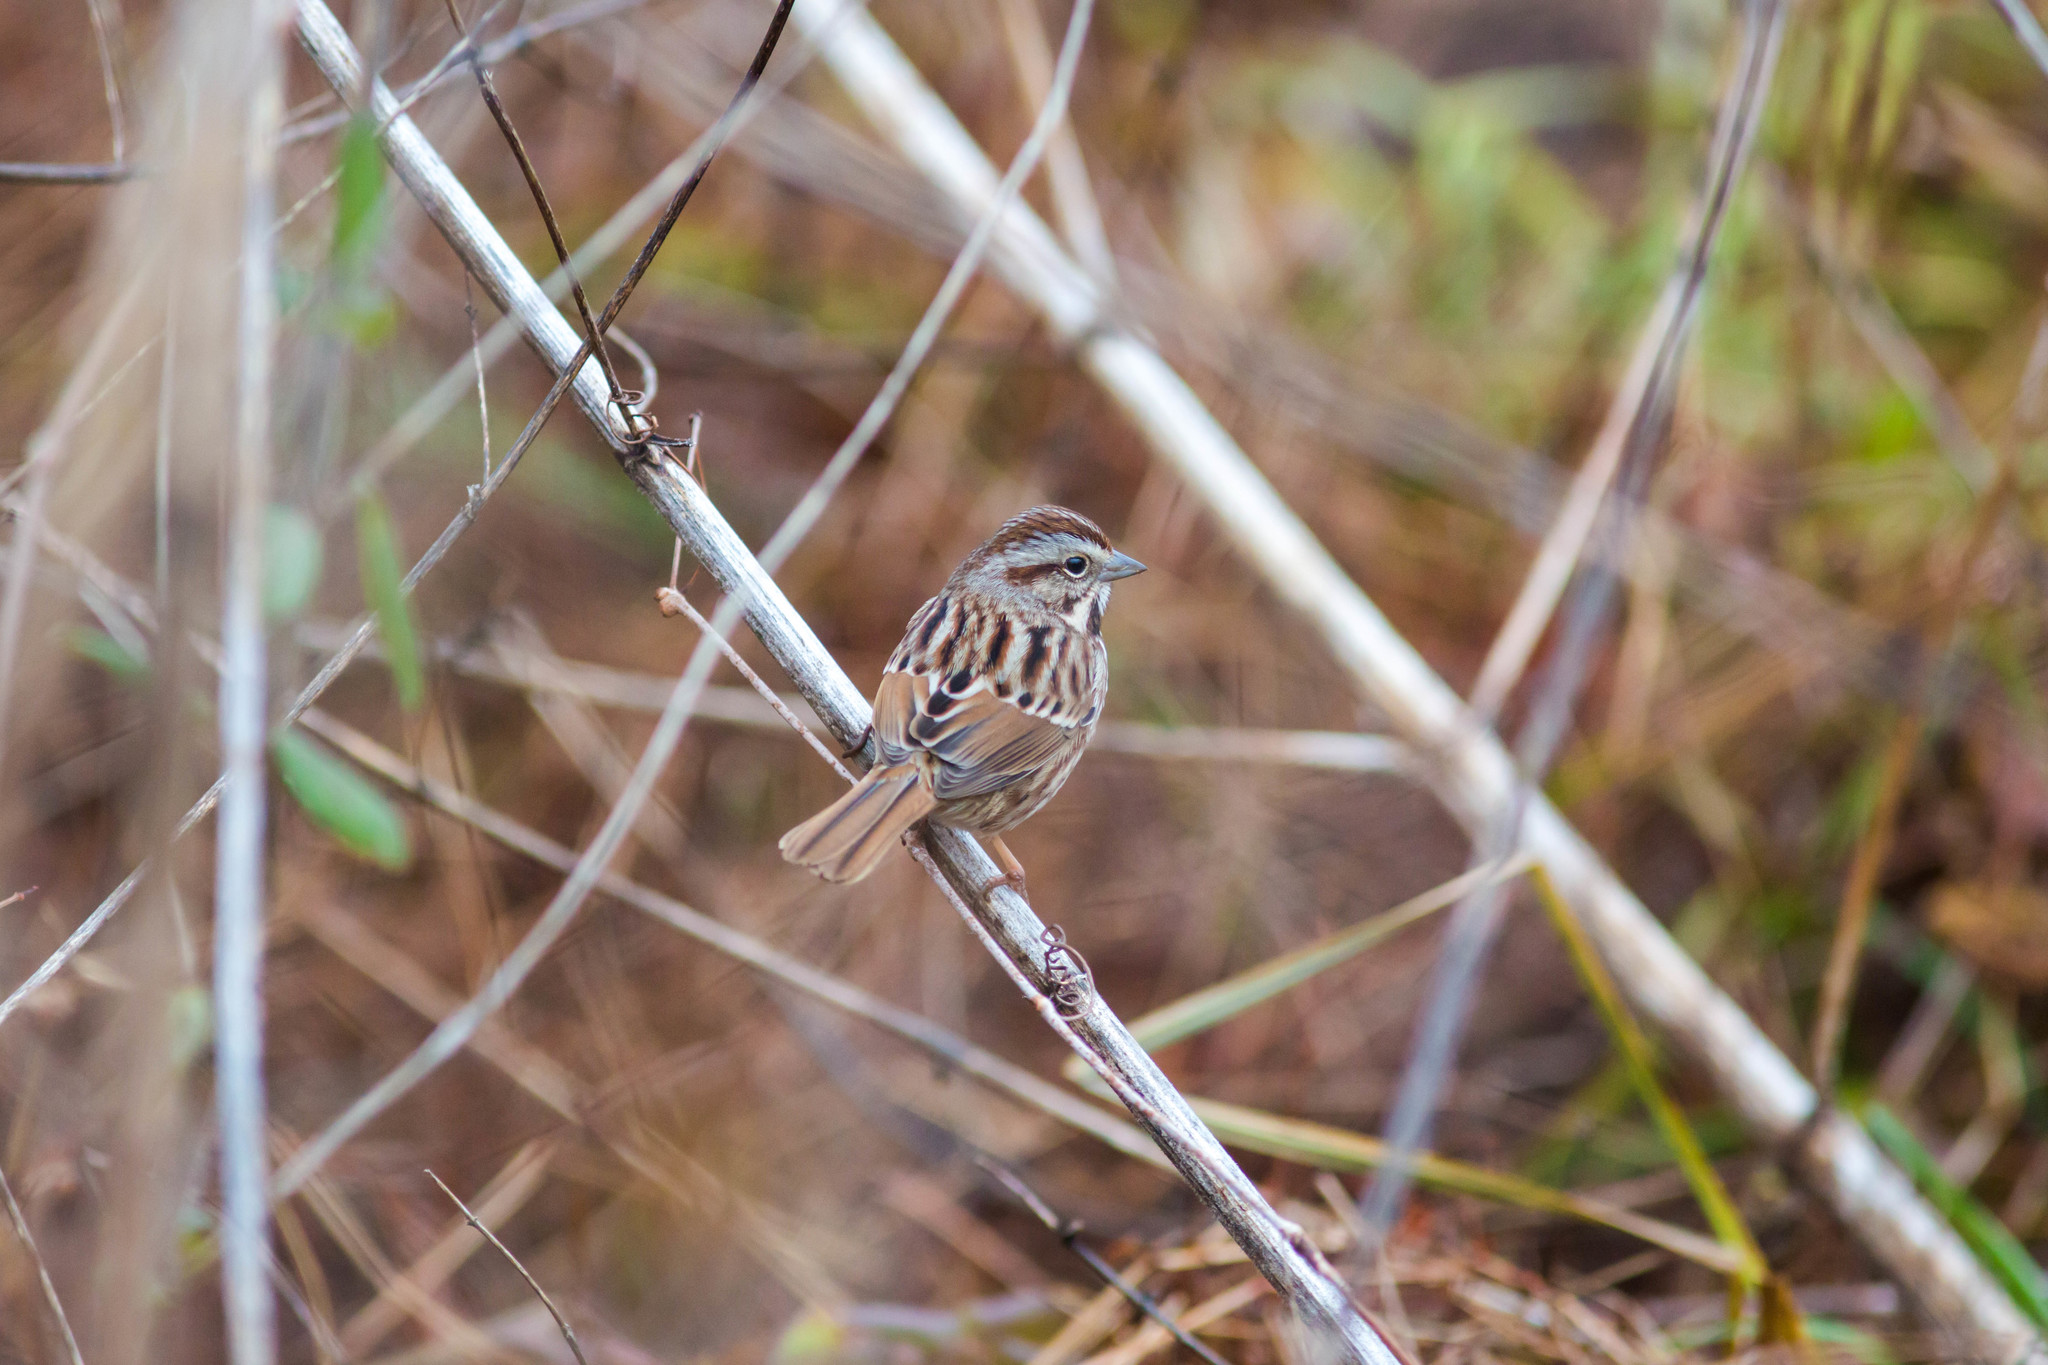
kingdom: Animalia
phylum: Chordata
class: Aves
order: Passeriformes
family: Passerellidae
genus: Melospiza
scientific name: Melospiza melodia
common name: Song sparrow
